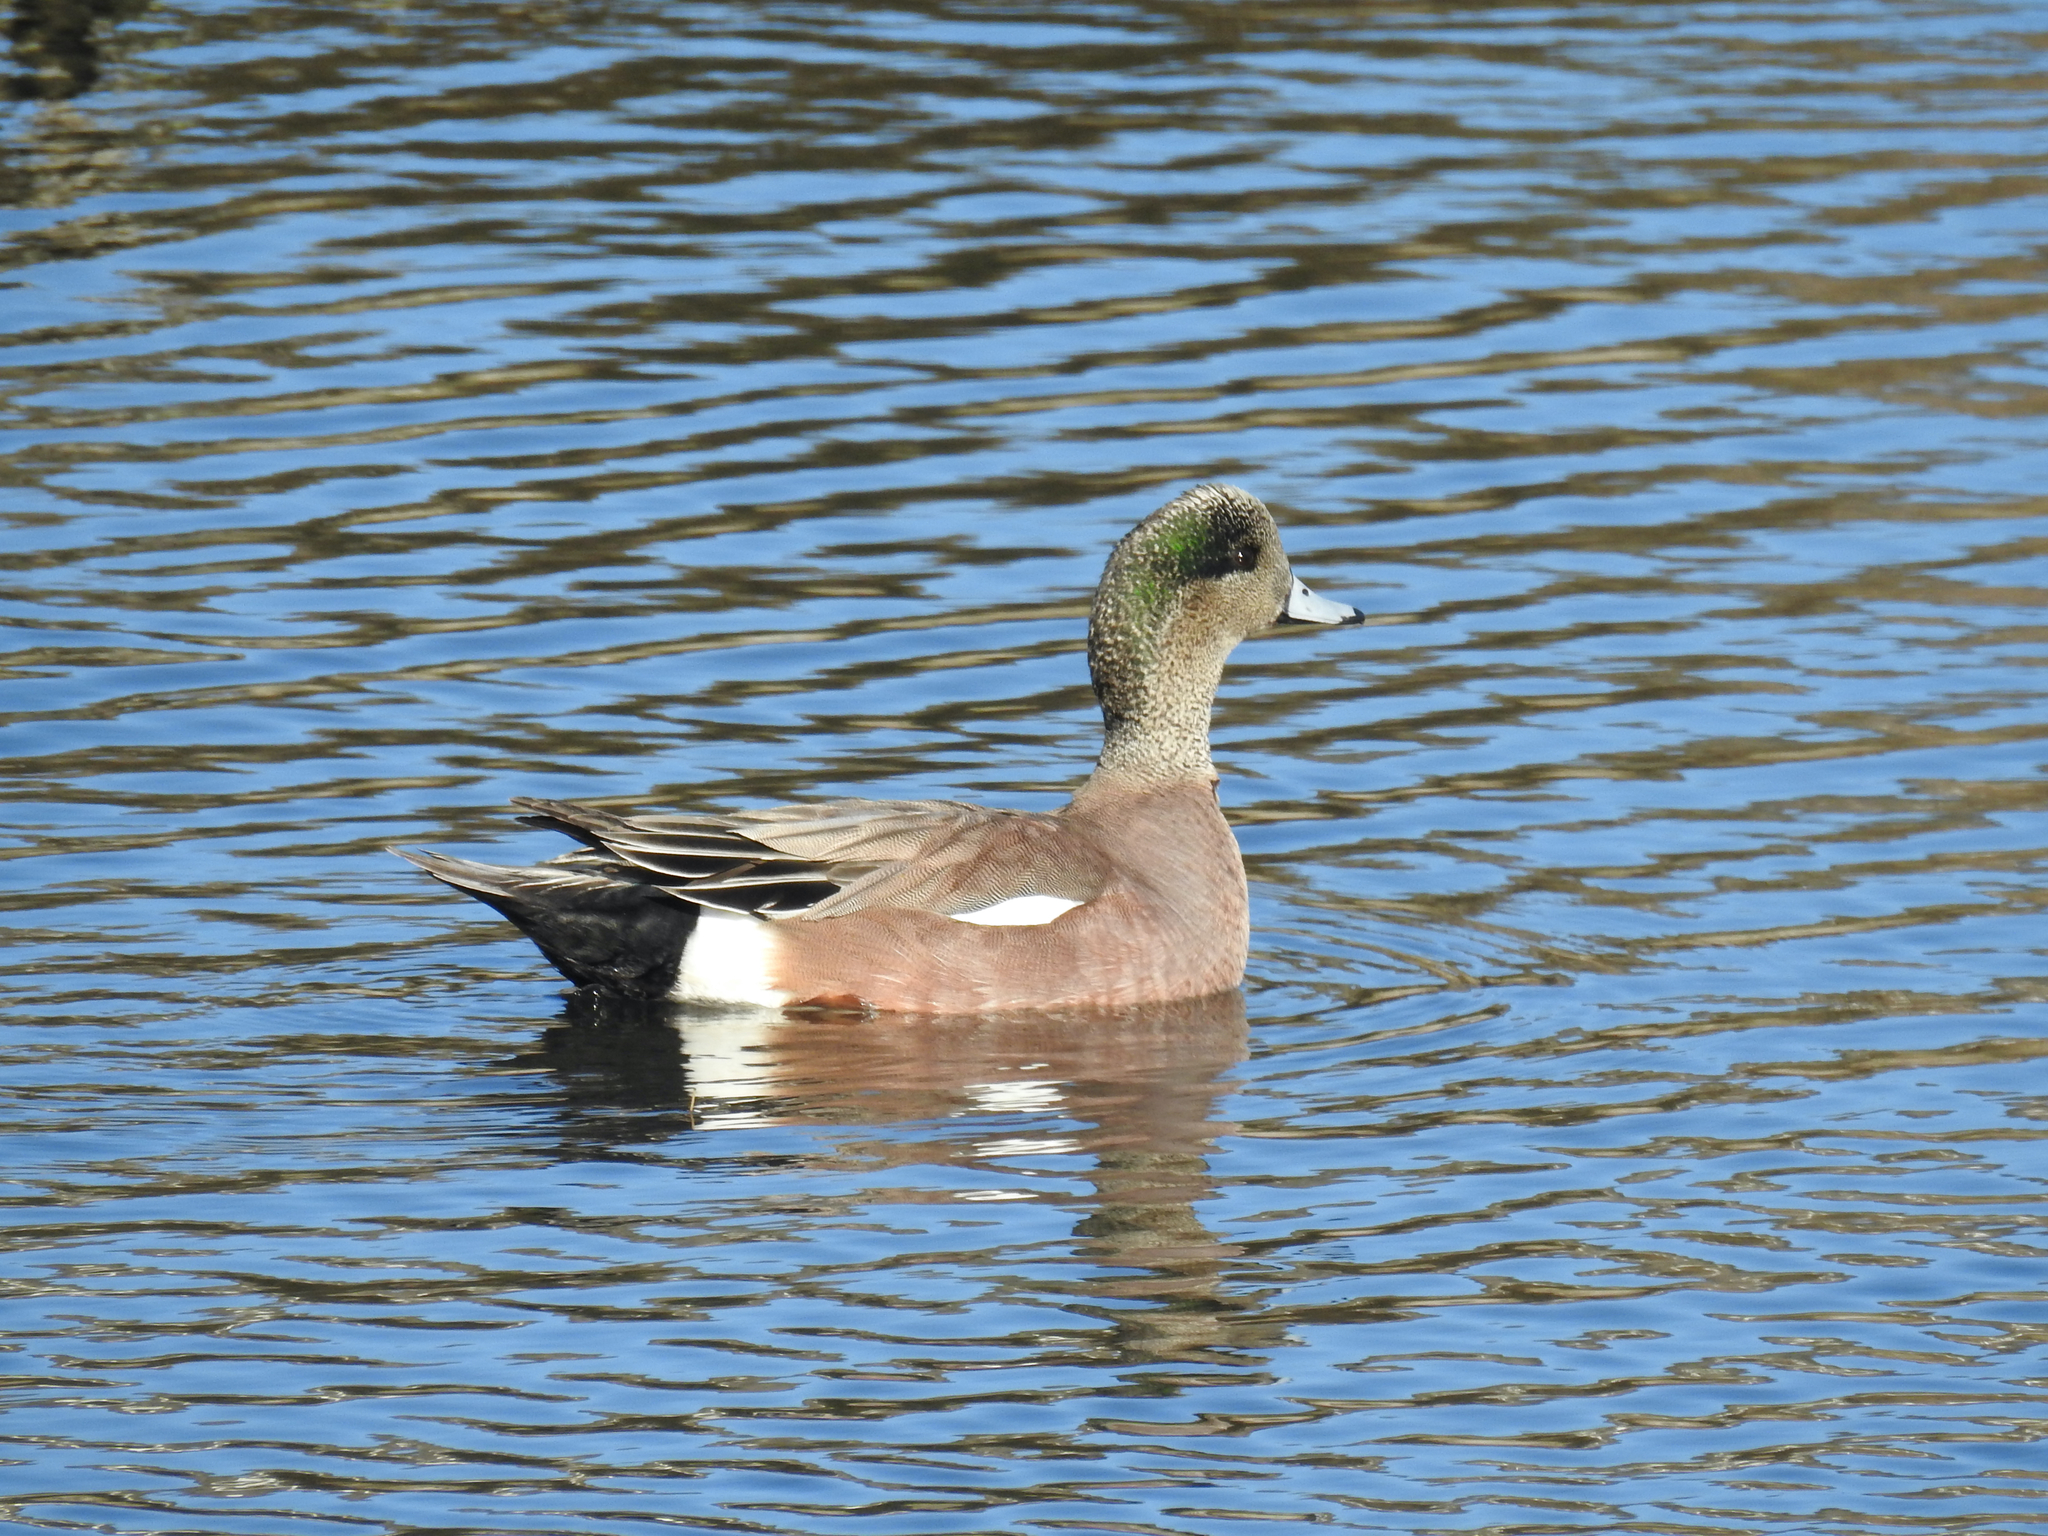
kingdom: Animalia
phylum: Chordata
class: Aves
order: Anseriformes
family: Anatidae
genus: Mareca
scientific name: Mareca americana
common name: American wigeon
